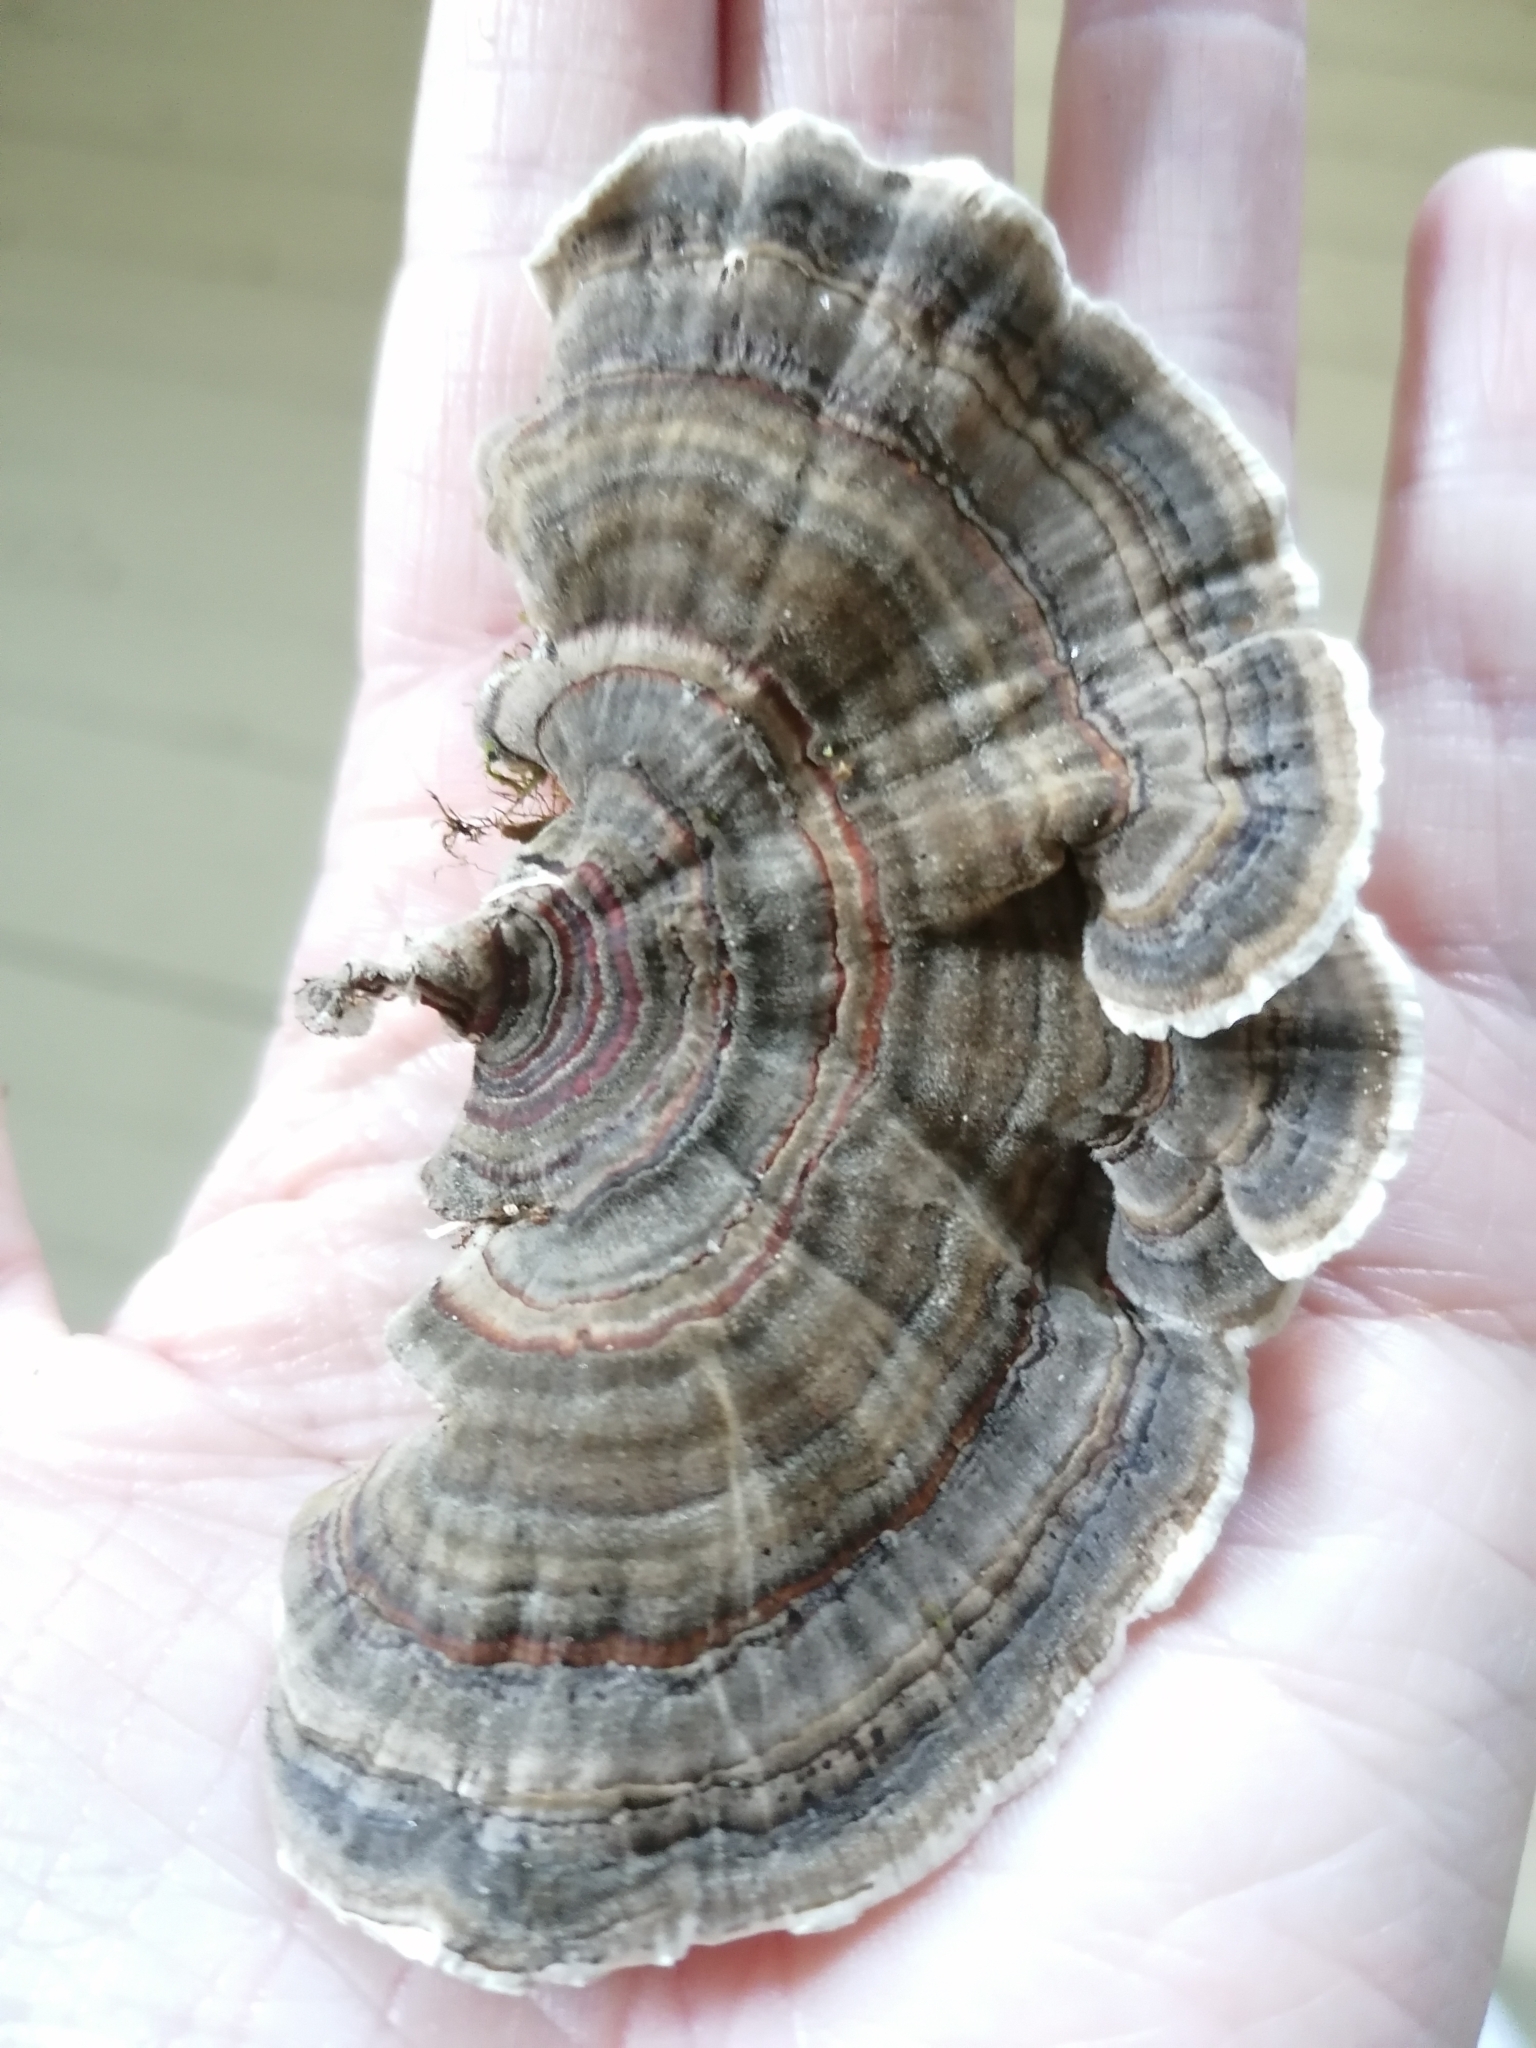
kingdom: Fungi
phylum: Basidiomycota
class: Agaricomycetes
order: Polyporales
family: Polyporaceae
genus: Trametes
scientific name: Trametes versicolor
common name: Turkeytail
